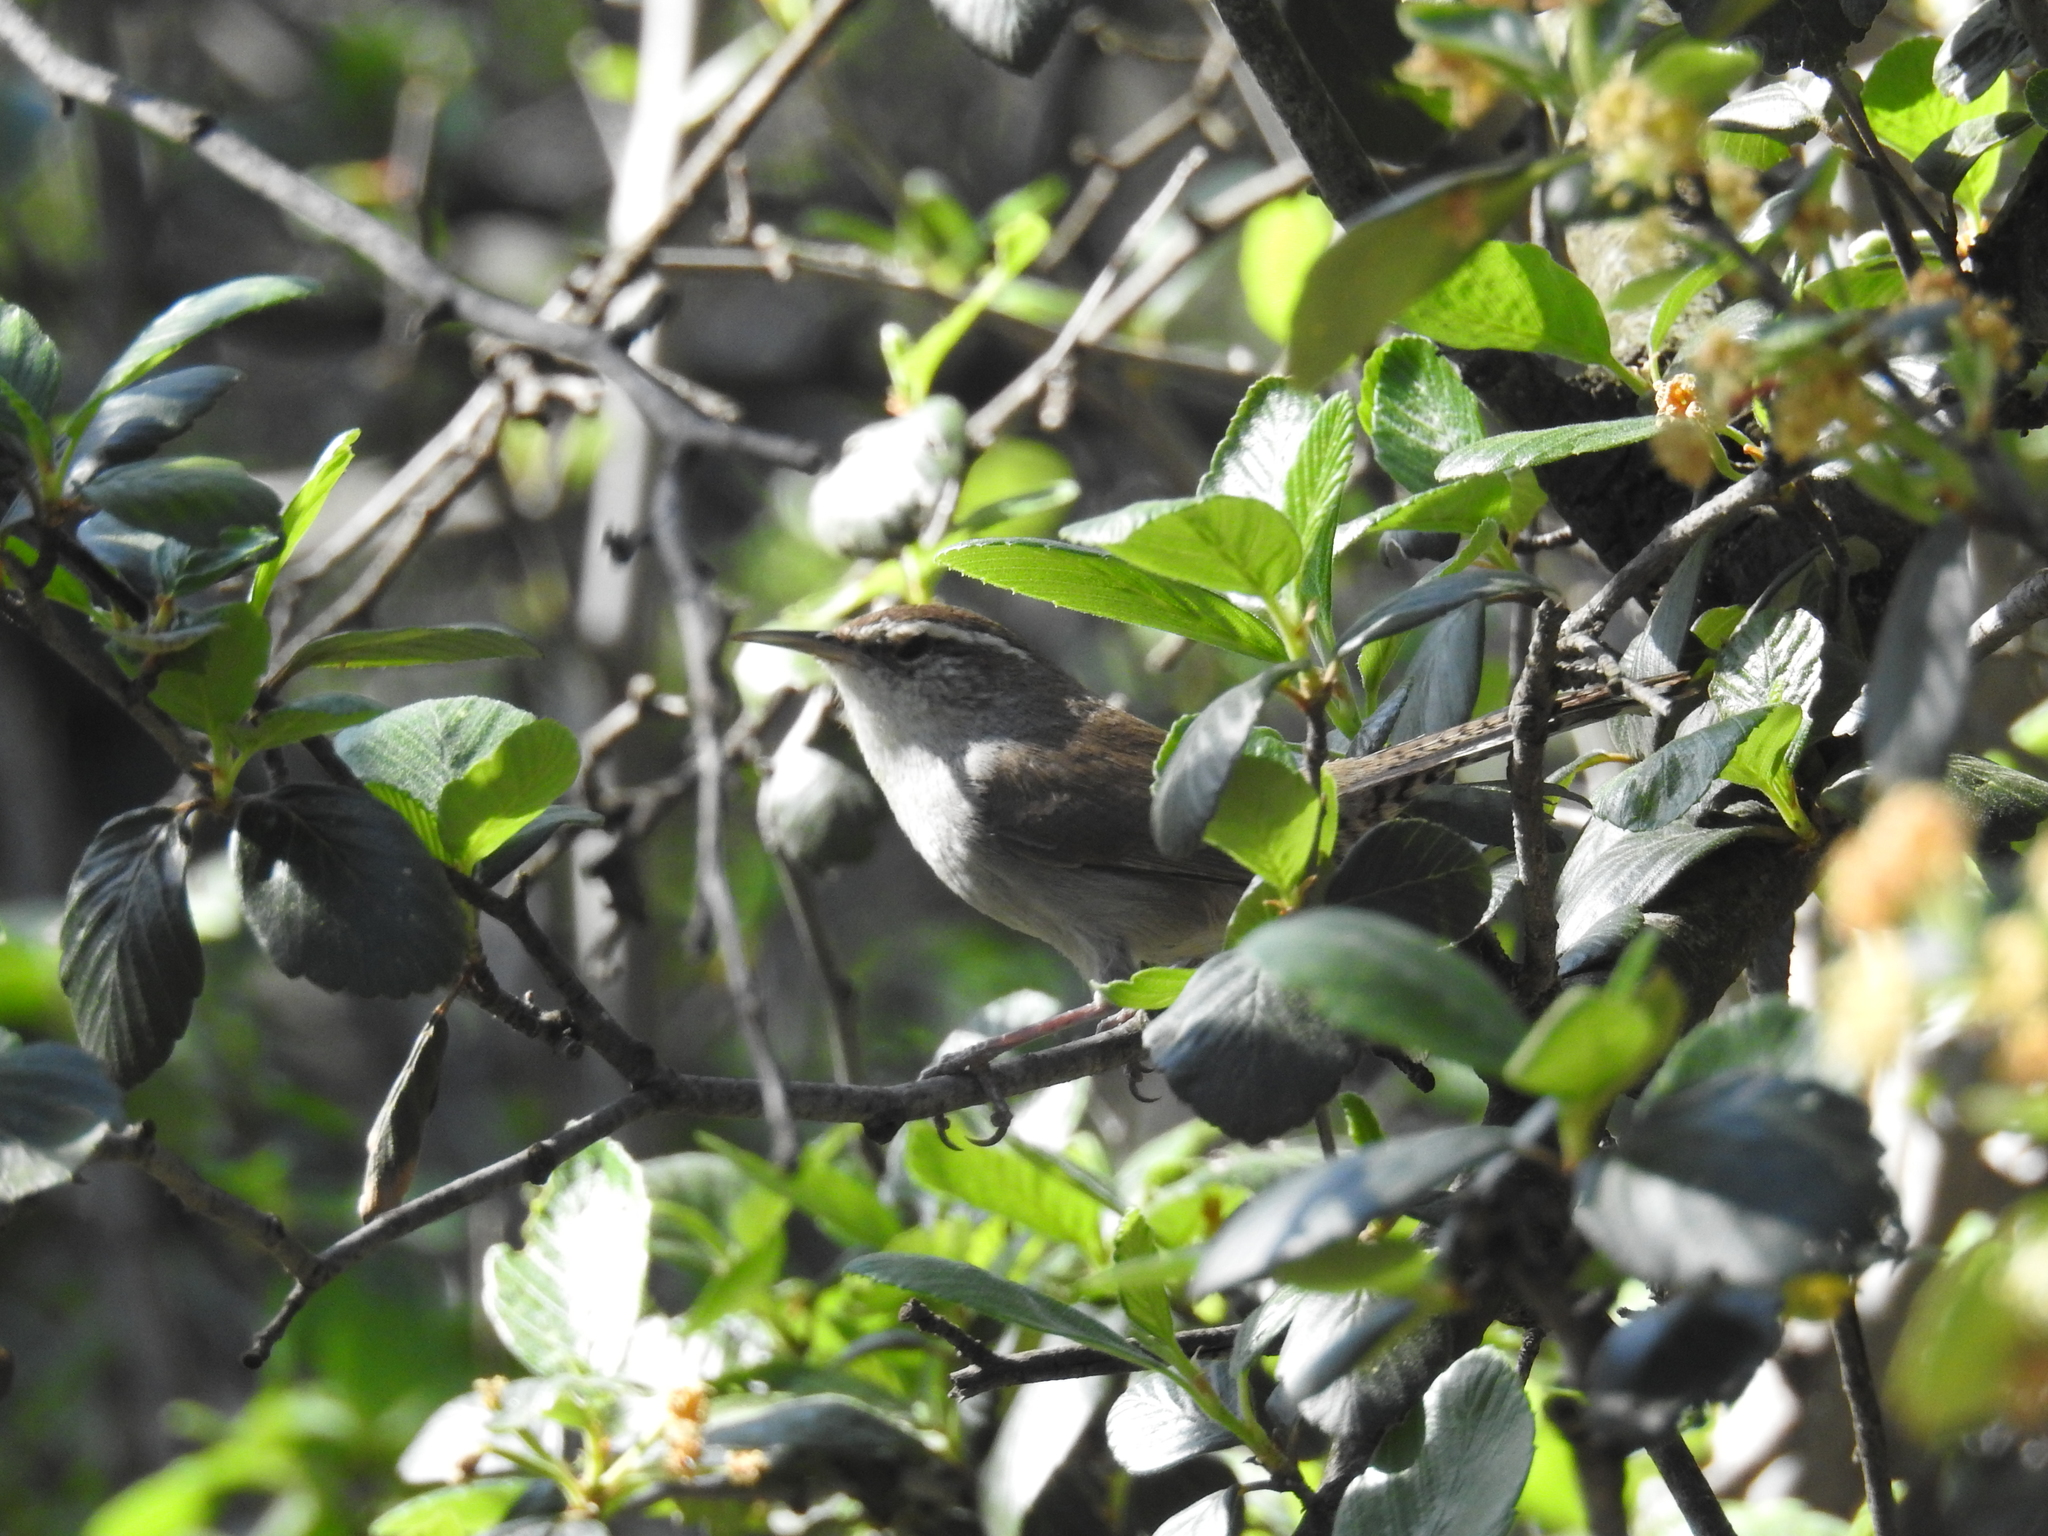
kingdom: Animalia
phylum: Chordata
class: Aves
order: Passeriformes
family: Troglodytidae
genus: Thryomanes
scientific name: Thryomanes bewickii
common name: Bewick's wren
